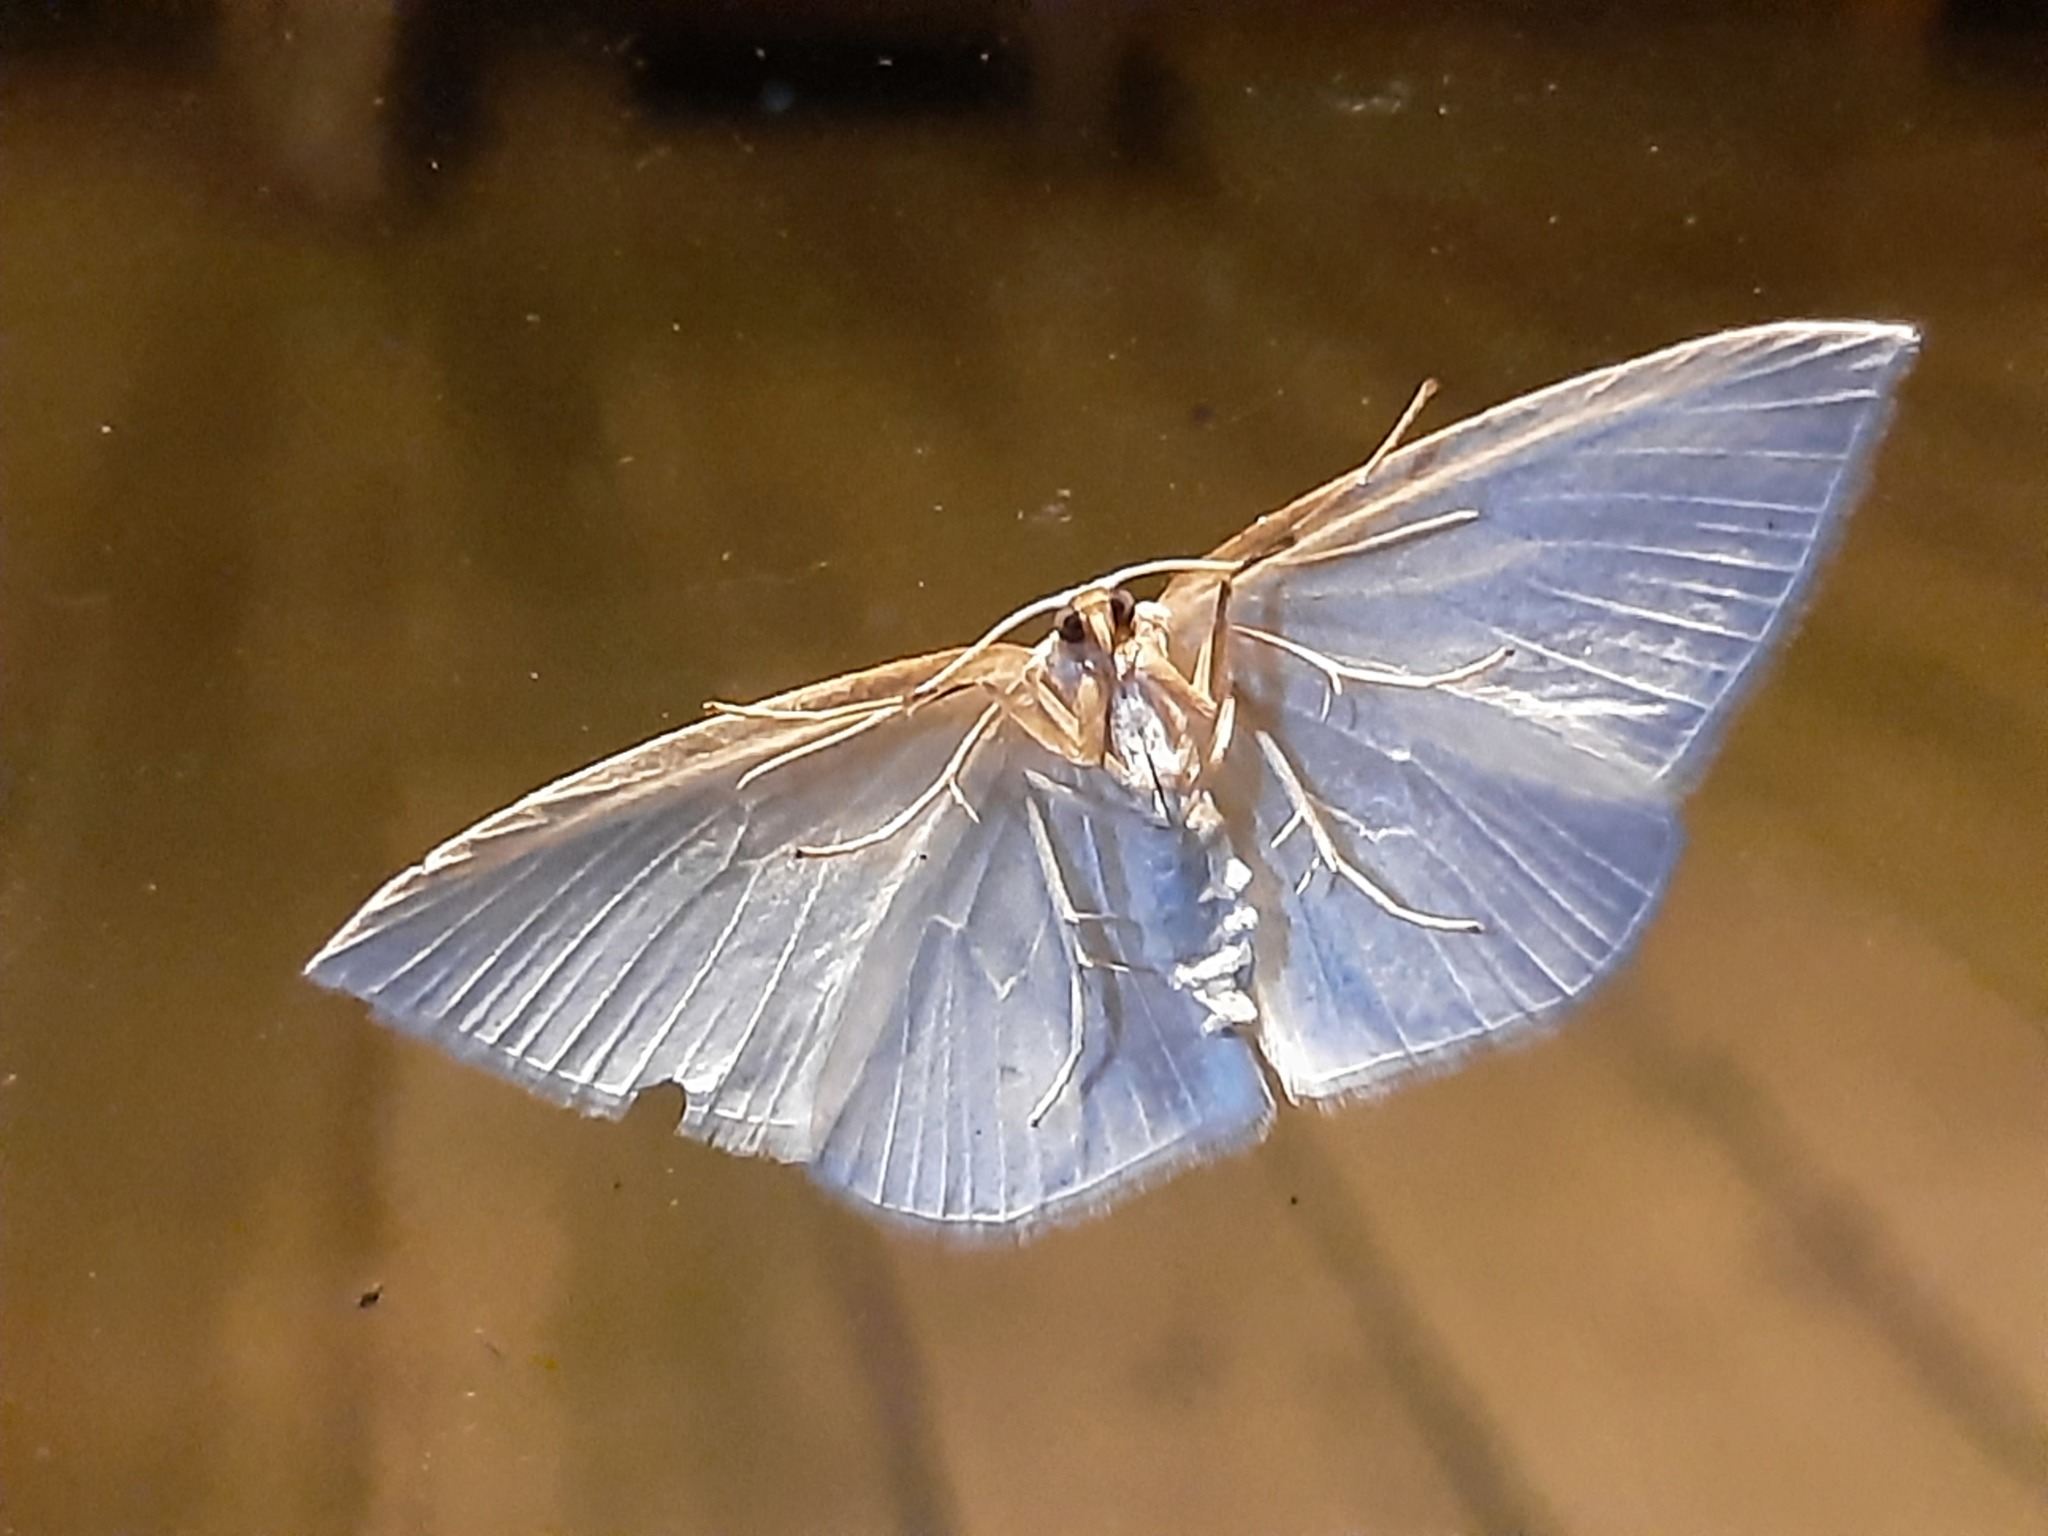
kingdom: Animalia
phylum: Arthropoda
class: Insecta
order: Lepidoptera
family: Geometridae
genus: Orthoclydon
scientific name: Orthoclydon praefectata
